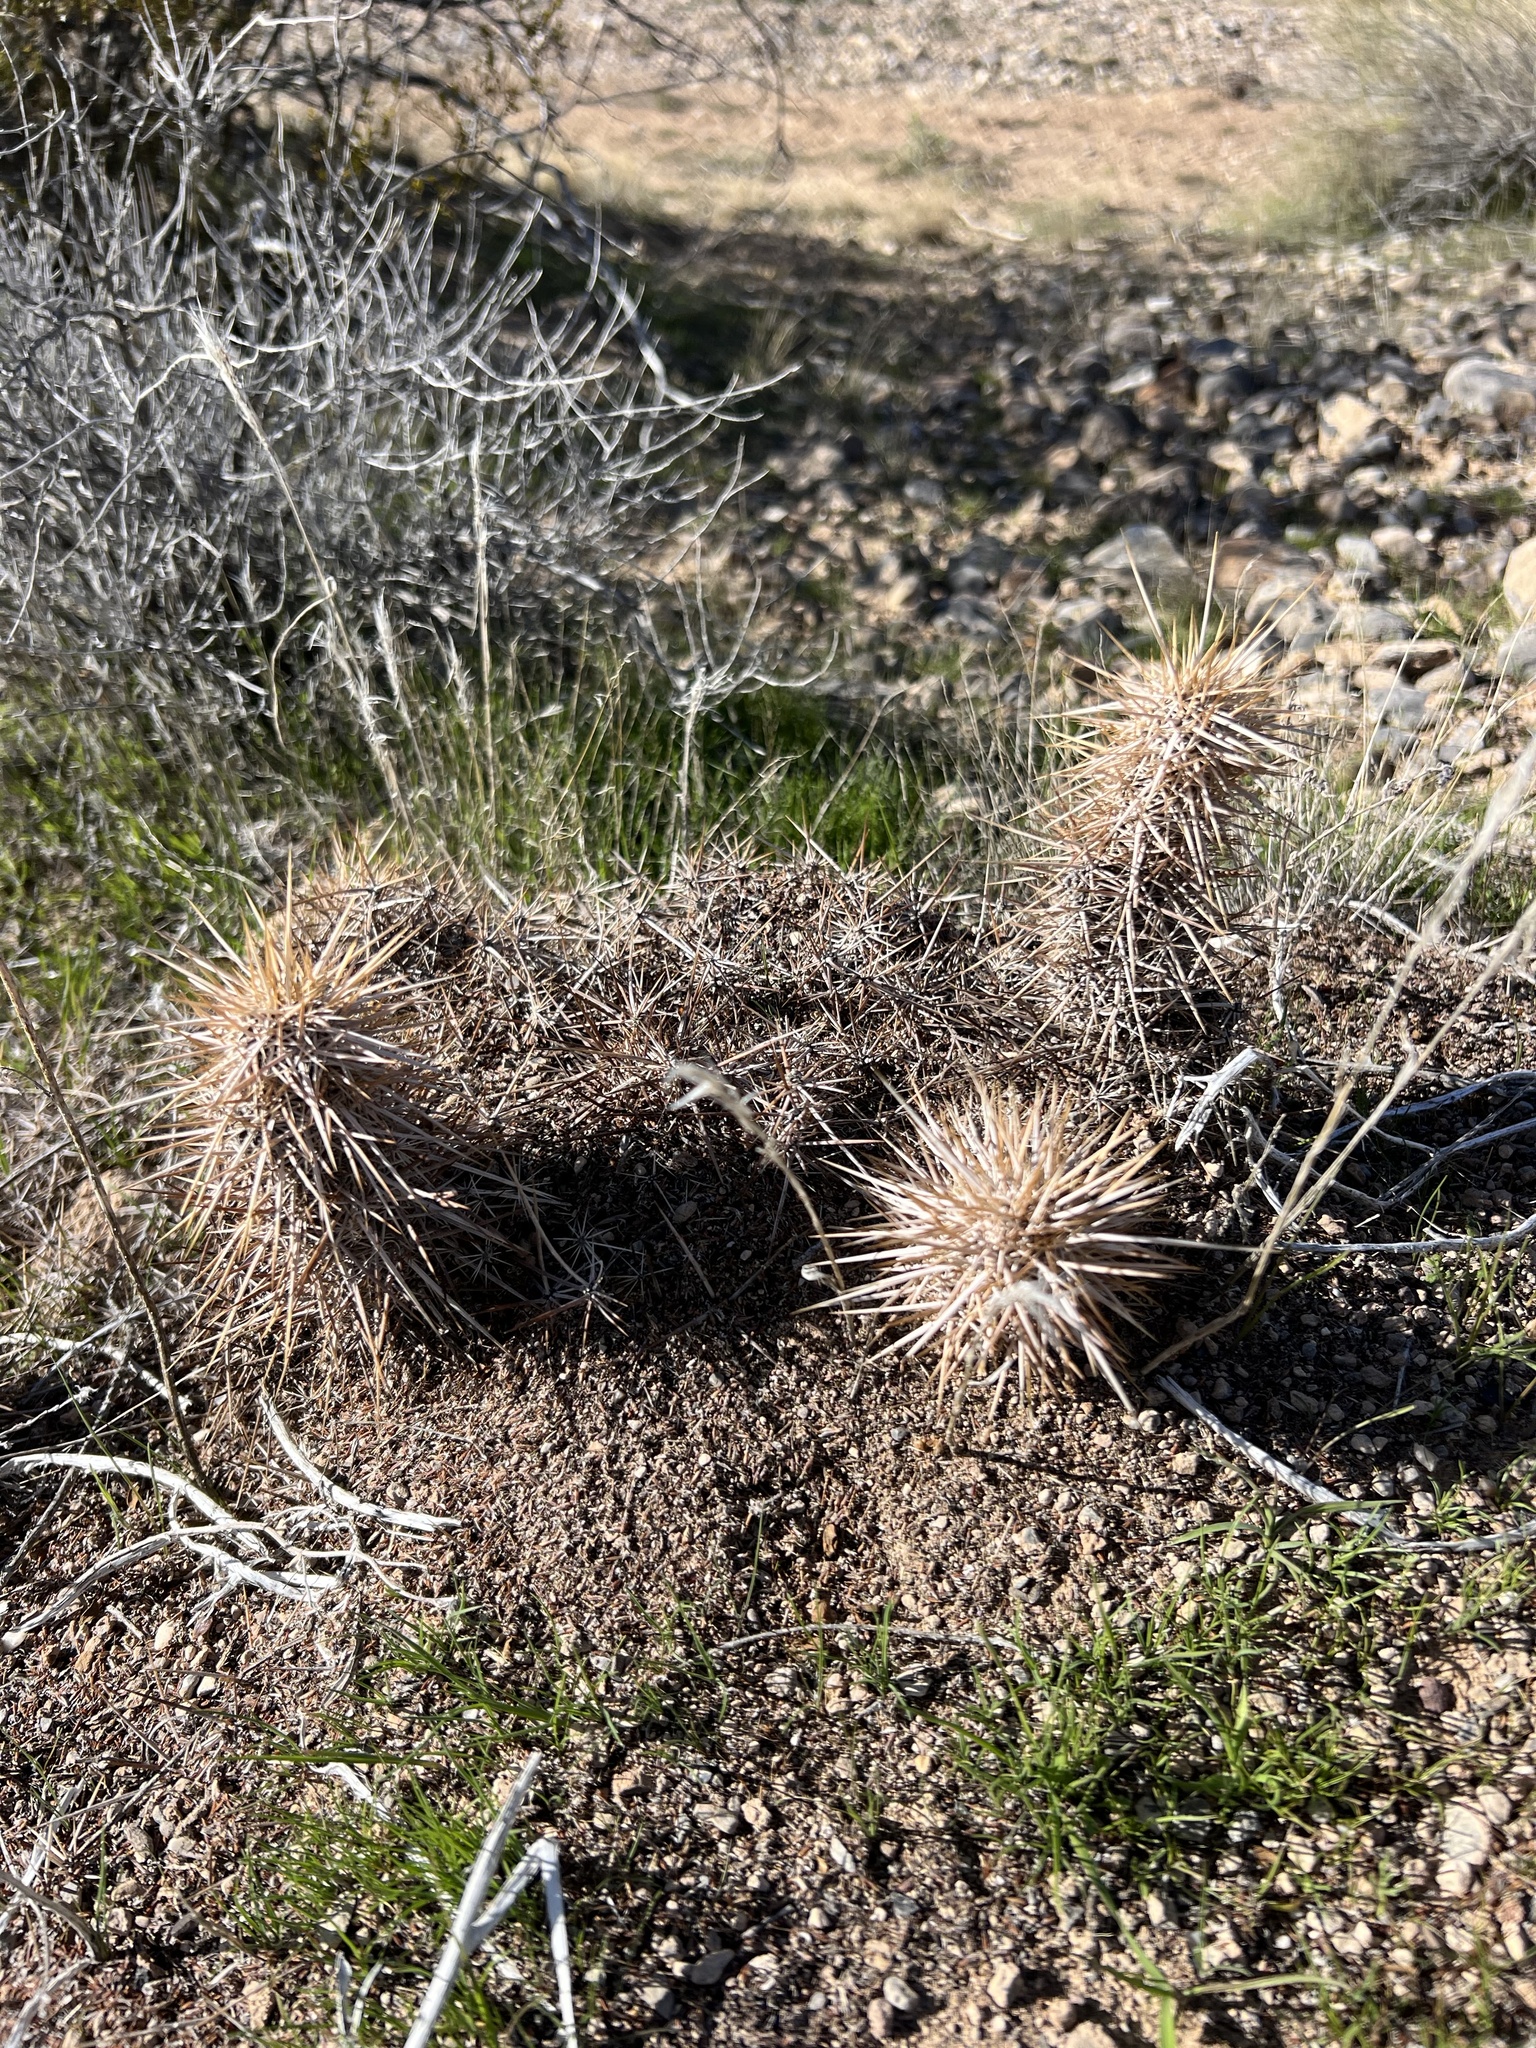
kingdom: Plantae
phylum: Tracheophyta
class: Magnoliopsida
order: Caryophyllales
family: Cactaceae
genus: Echinocereus
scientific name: Echinocereus engelmannii
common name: Engelmann's hedgehog cactus
